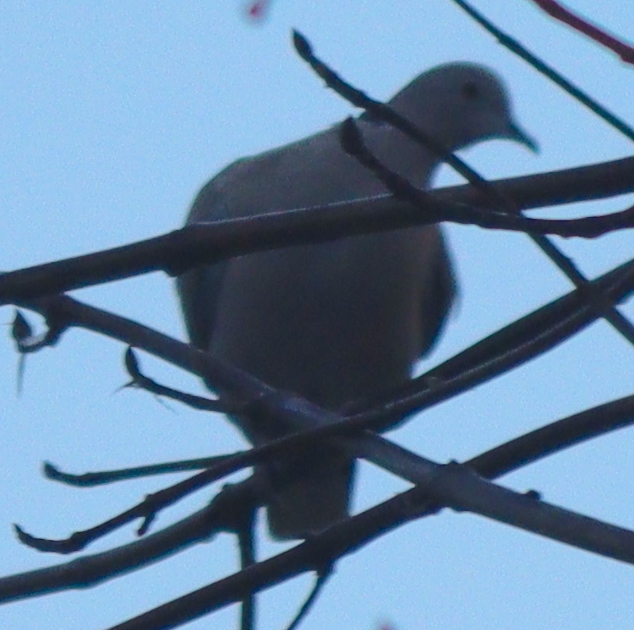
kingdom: Animalia
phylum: Chordata
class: Aves
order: Columbiformes
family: Columbidae
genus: Streptopelia
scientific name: Streptopelia decaocto
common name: Eurasian collared dove
